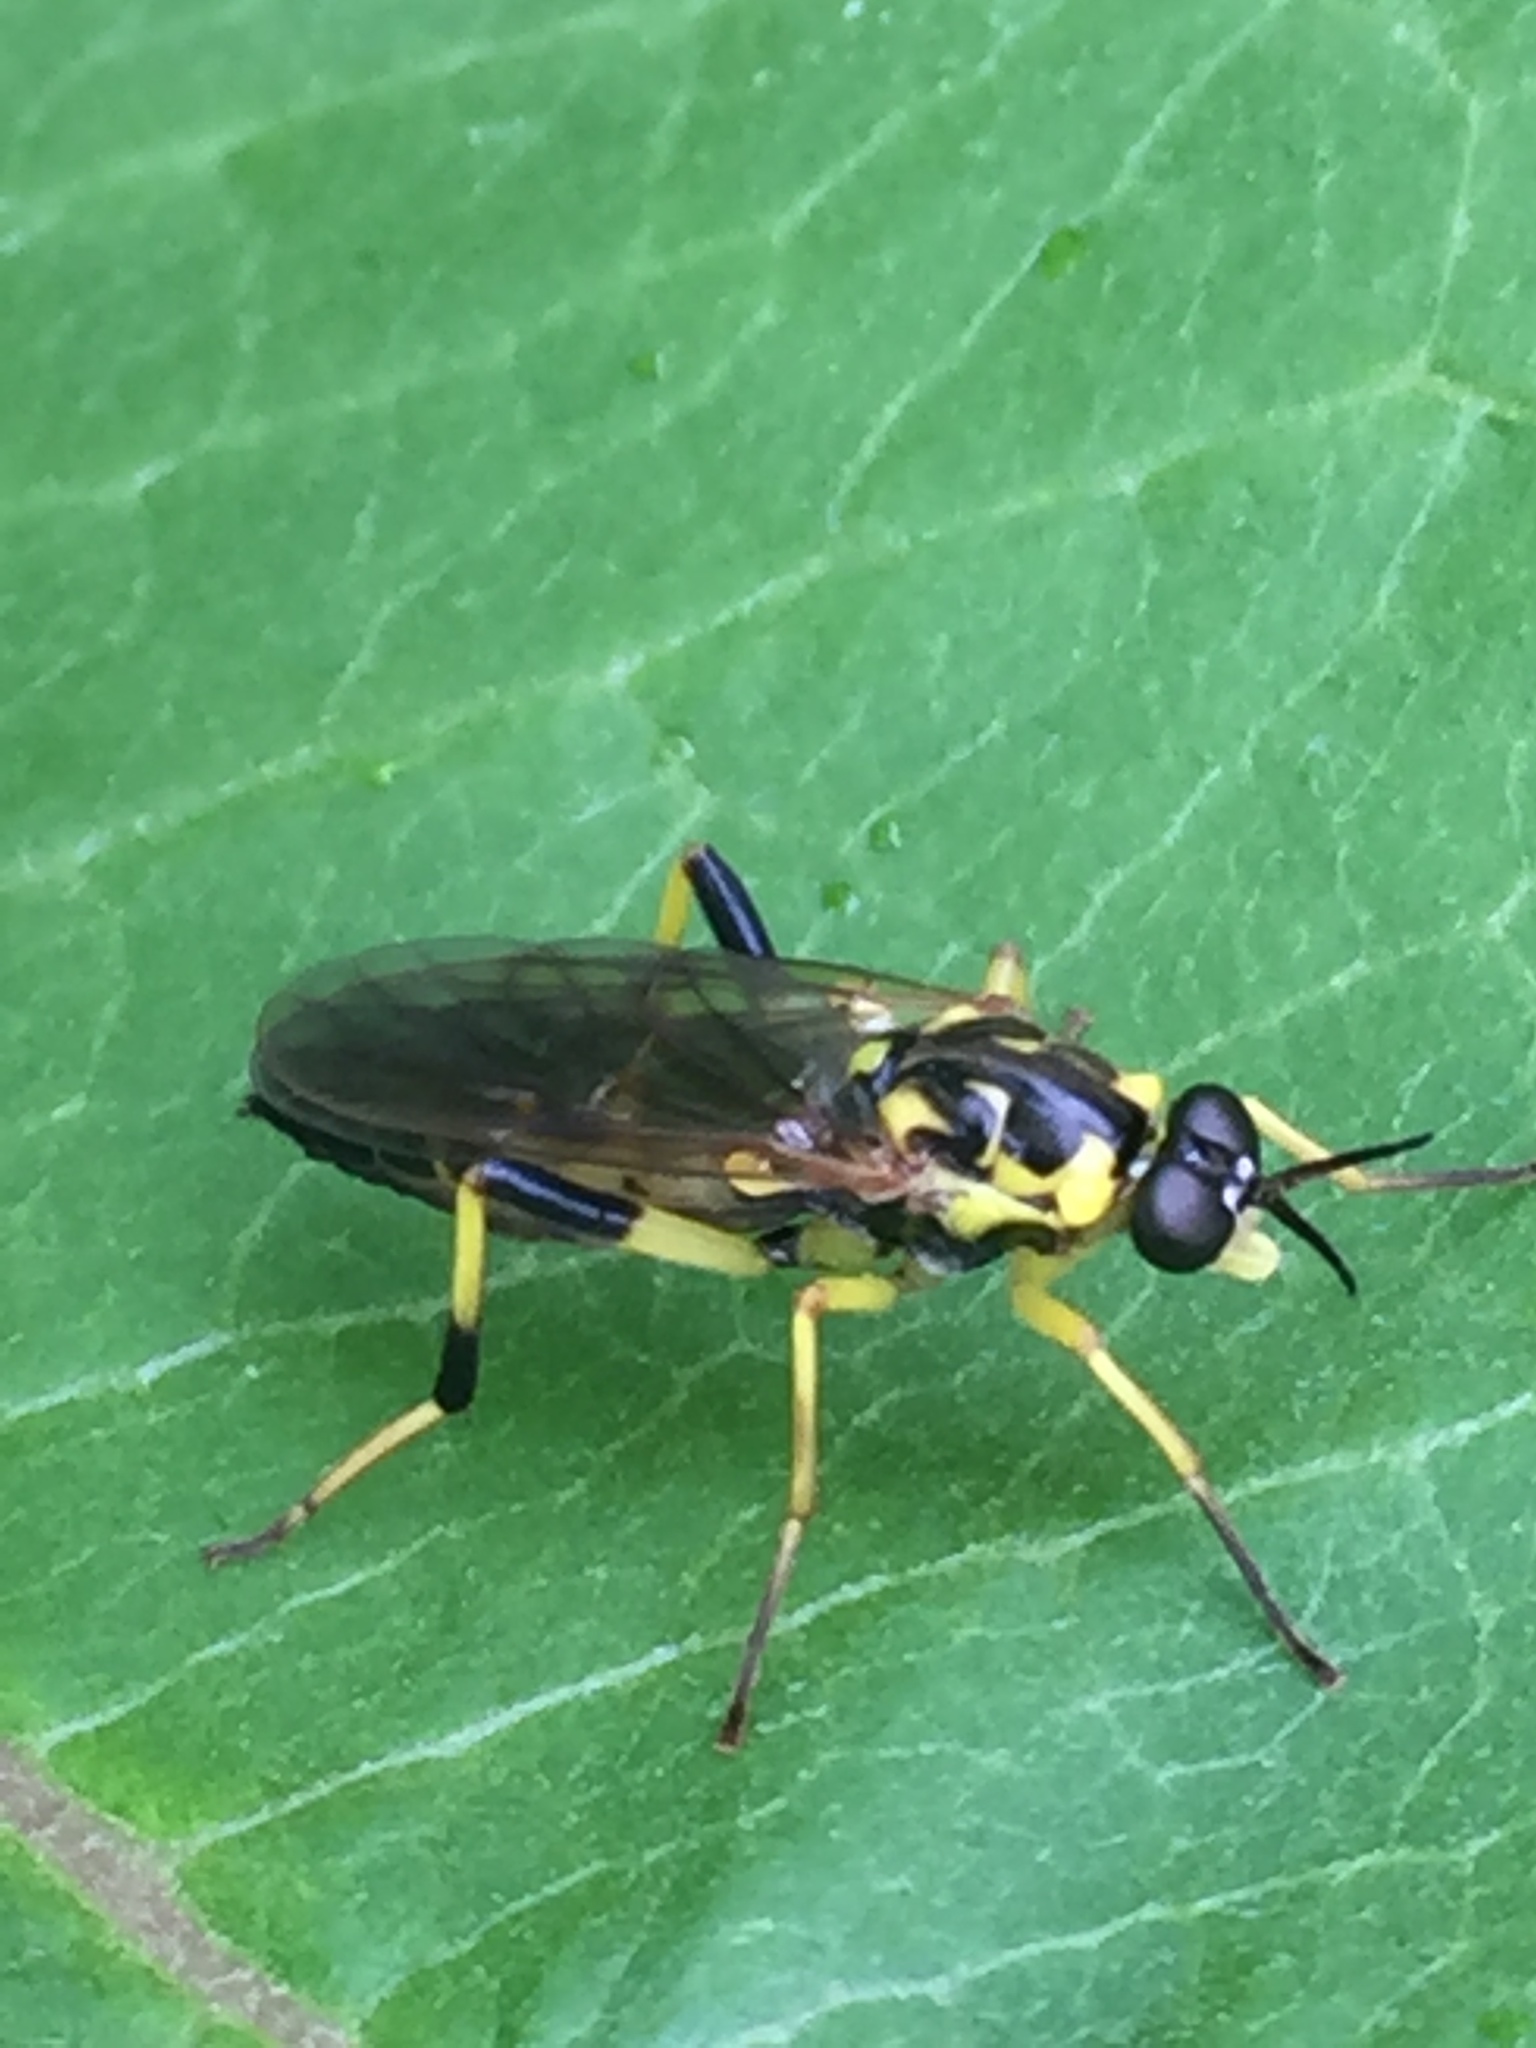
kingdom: Animalia
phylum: Arthropoda
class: Insecta
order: Diptera
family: Xylomyidae
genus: Xylomya
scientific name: Xylomya terminalis
